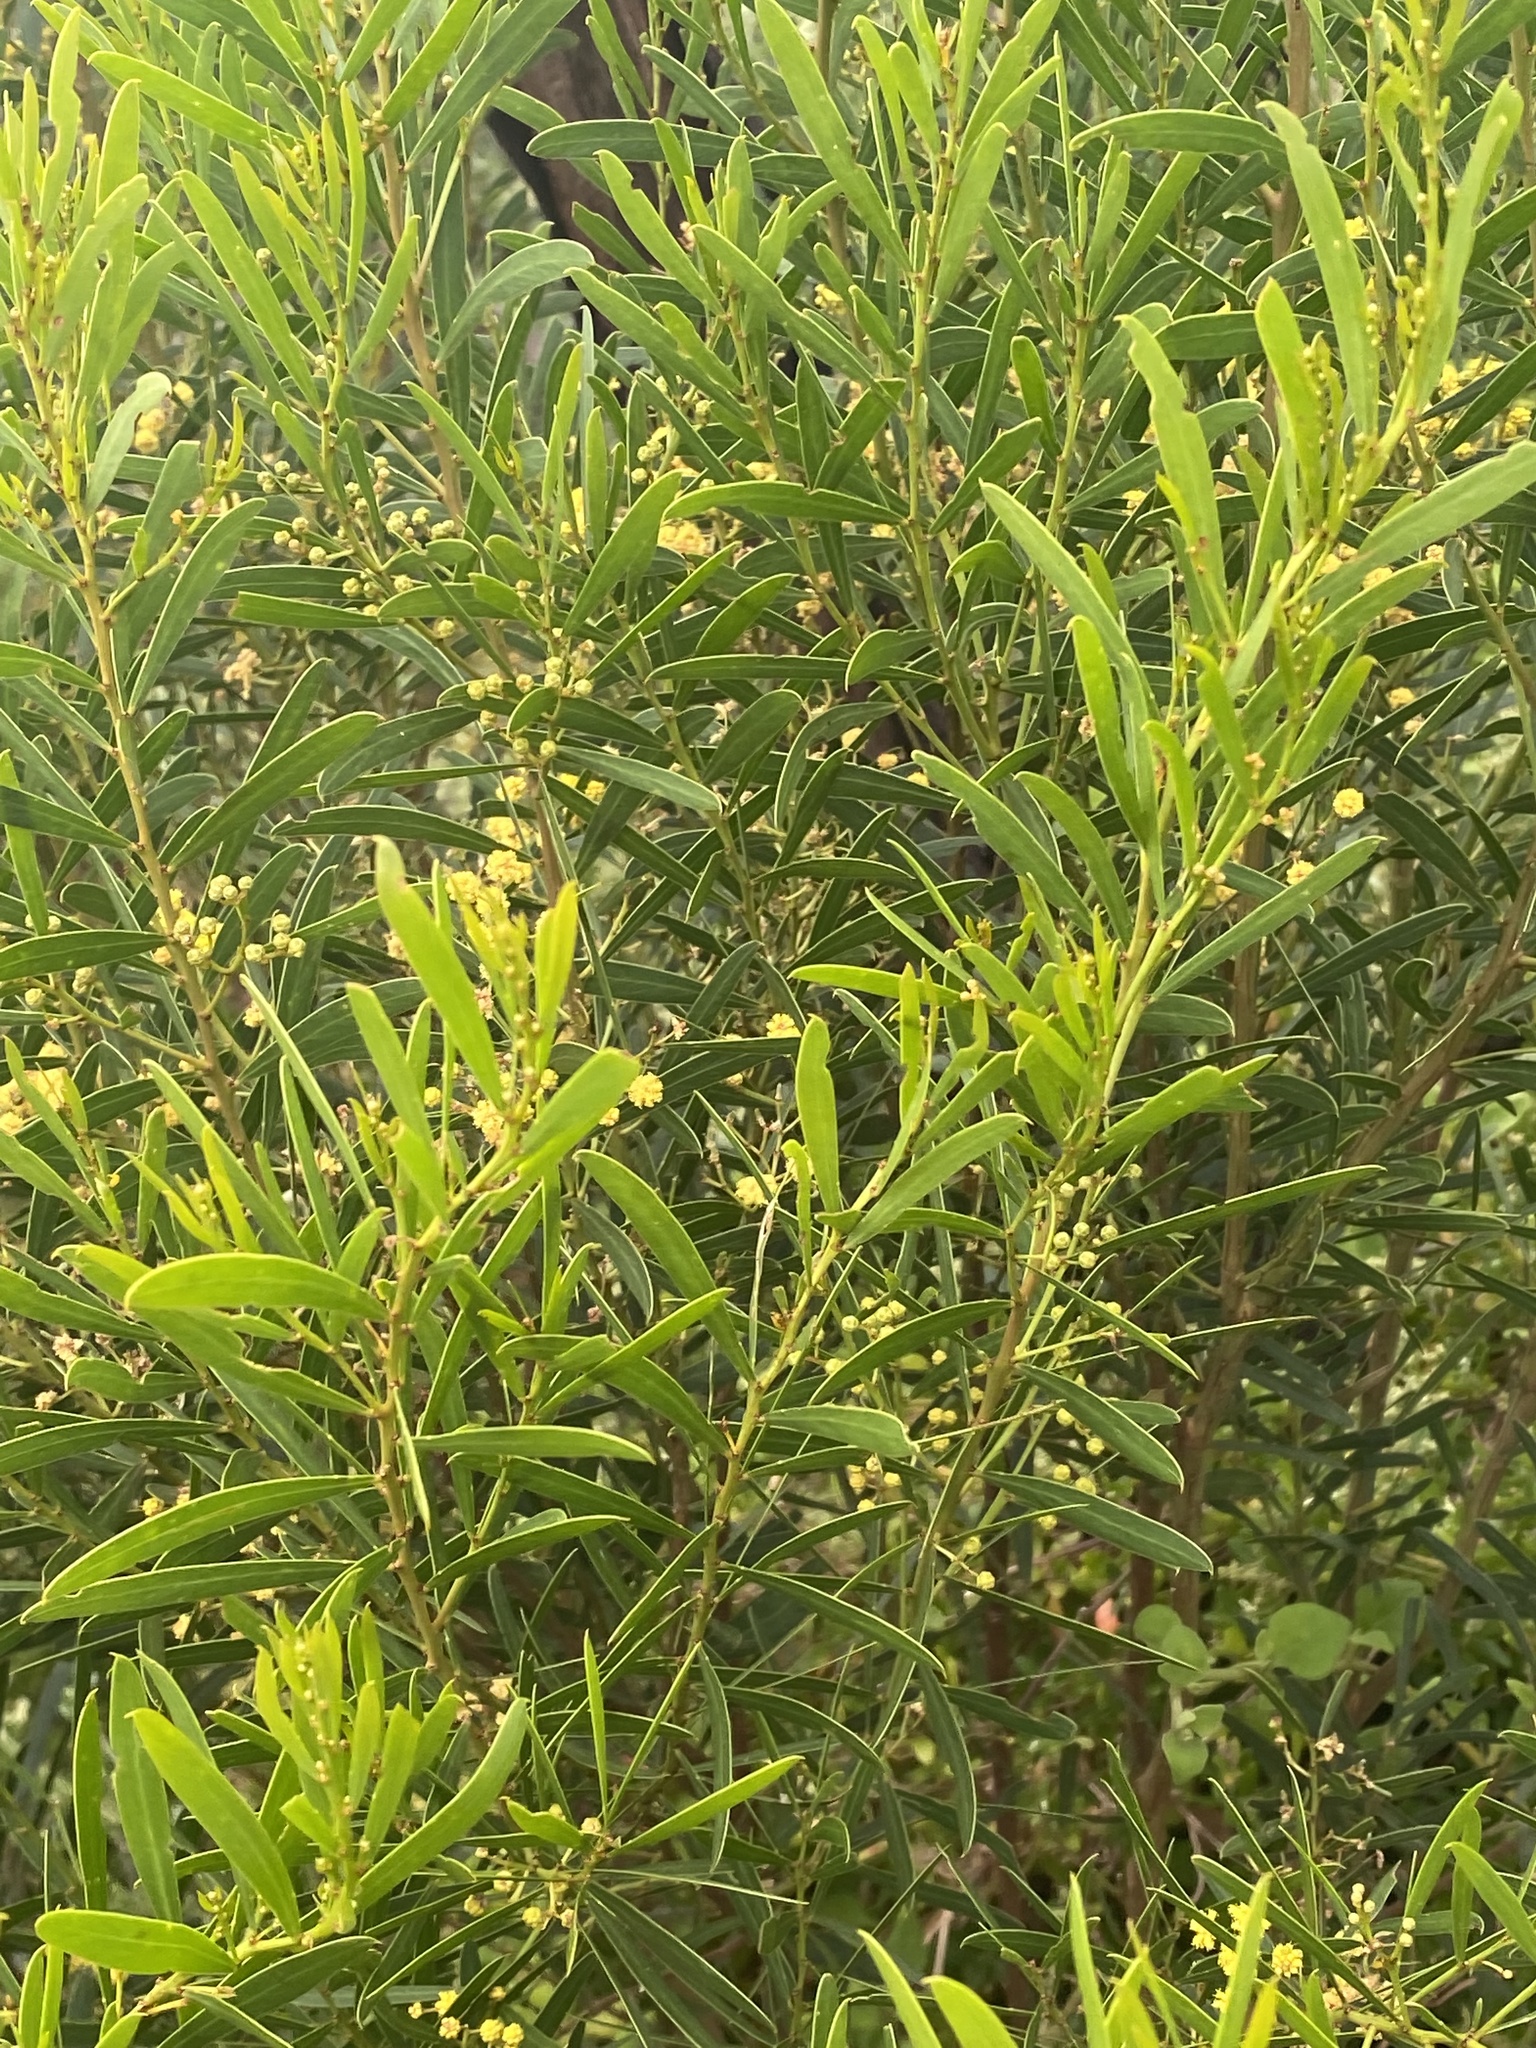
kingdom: Plantae
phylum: Tracheophyta
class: Magnoliopsida
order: Fabales
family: Fabaceae
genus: Acacia
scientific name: Acacia longifolia
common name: Sydney golden wattle
